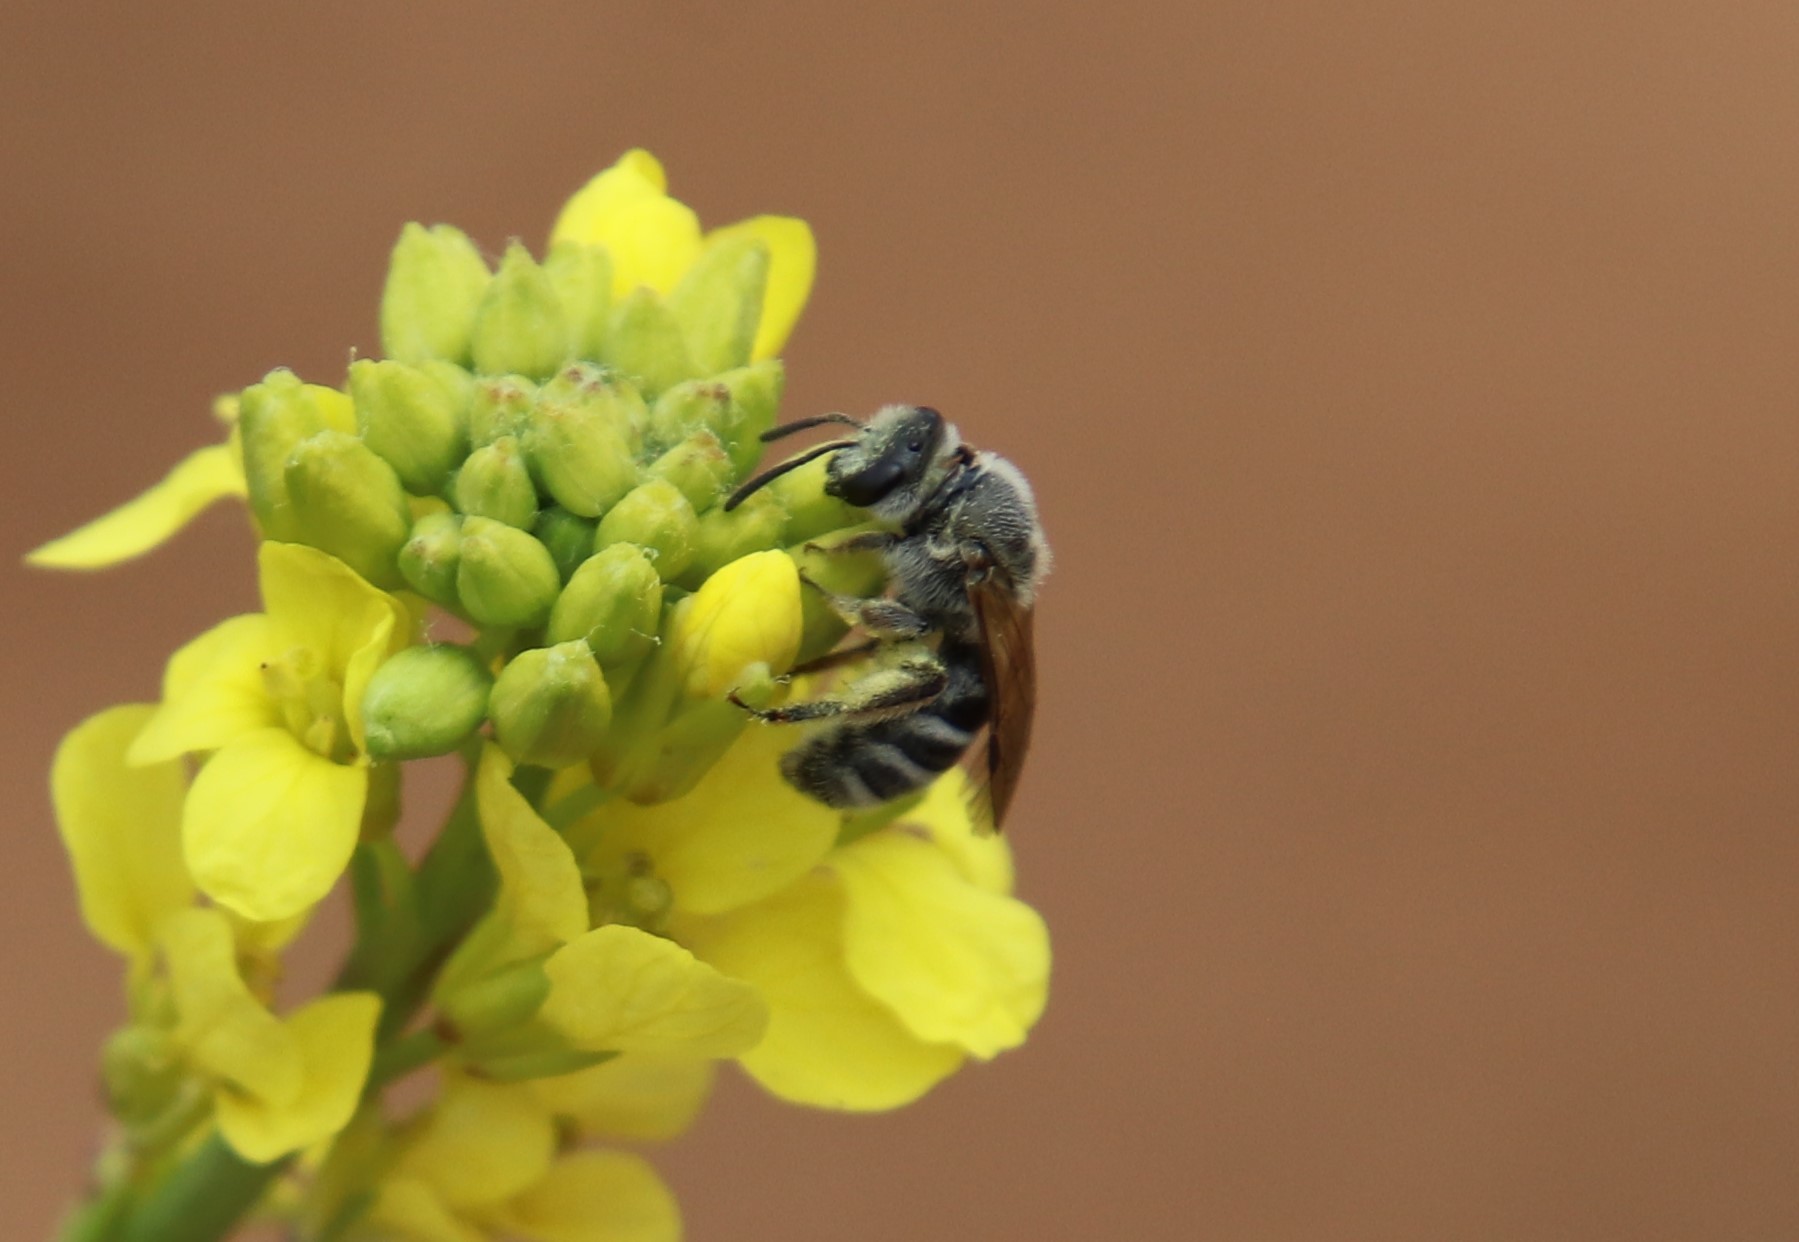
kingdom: Animalia
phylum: Arthropoda
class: Insecta
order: Hymenoptera
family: Halictidae
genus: Lasioglossum
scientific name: Lasioglossum sisymbrii
